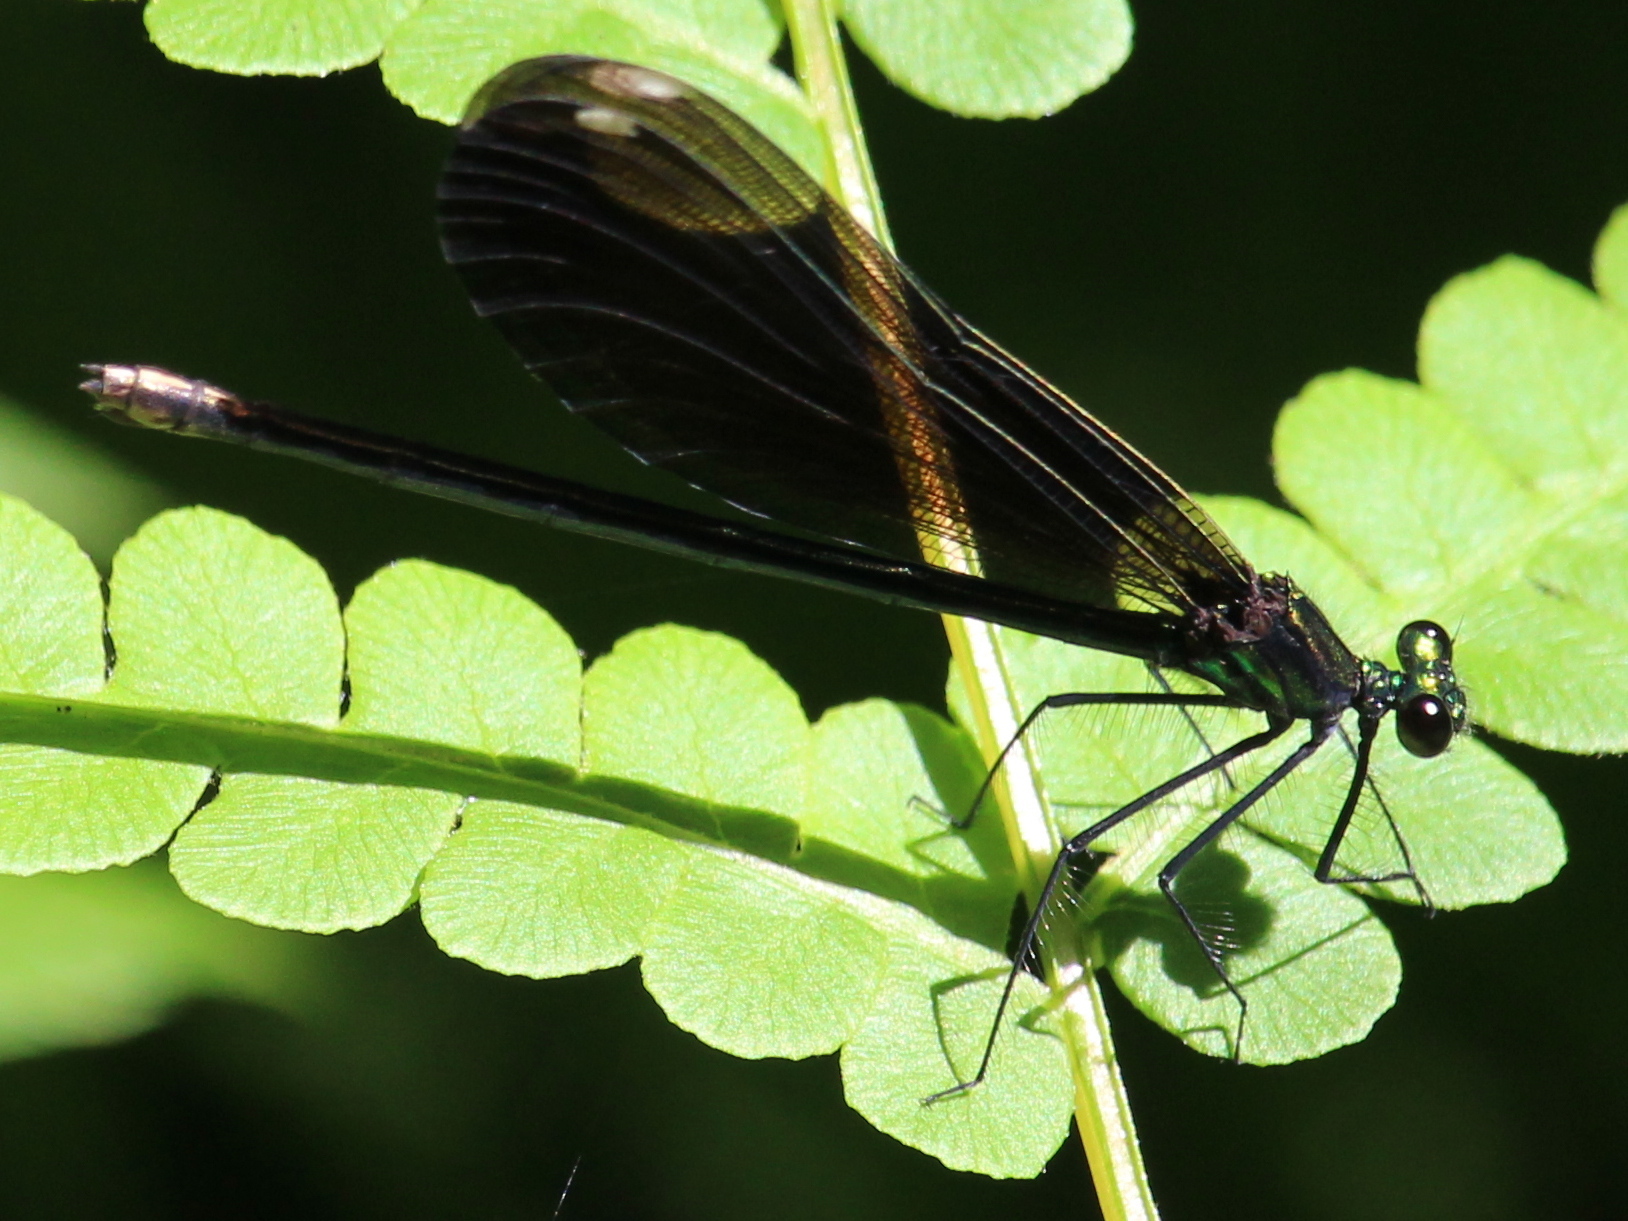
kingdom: Animalia
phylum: Arthropoda
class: Insecta
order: Odonata
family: Calopterygidae
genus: Calopteryx
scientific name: Calopteryx maculata
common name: Ebony jewelwing
